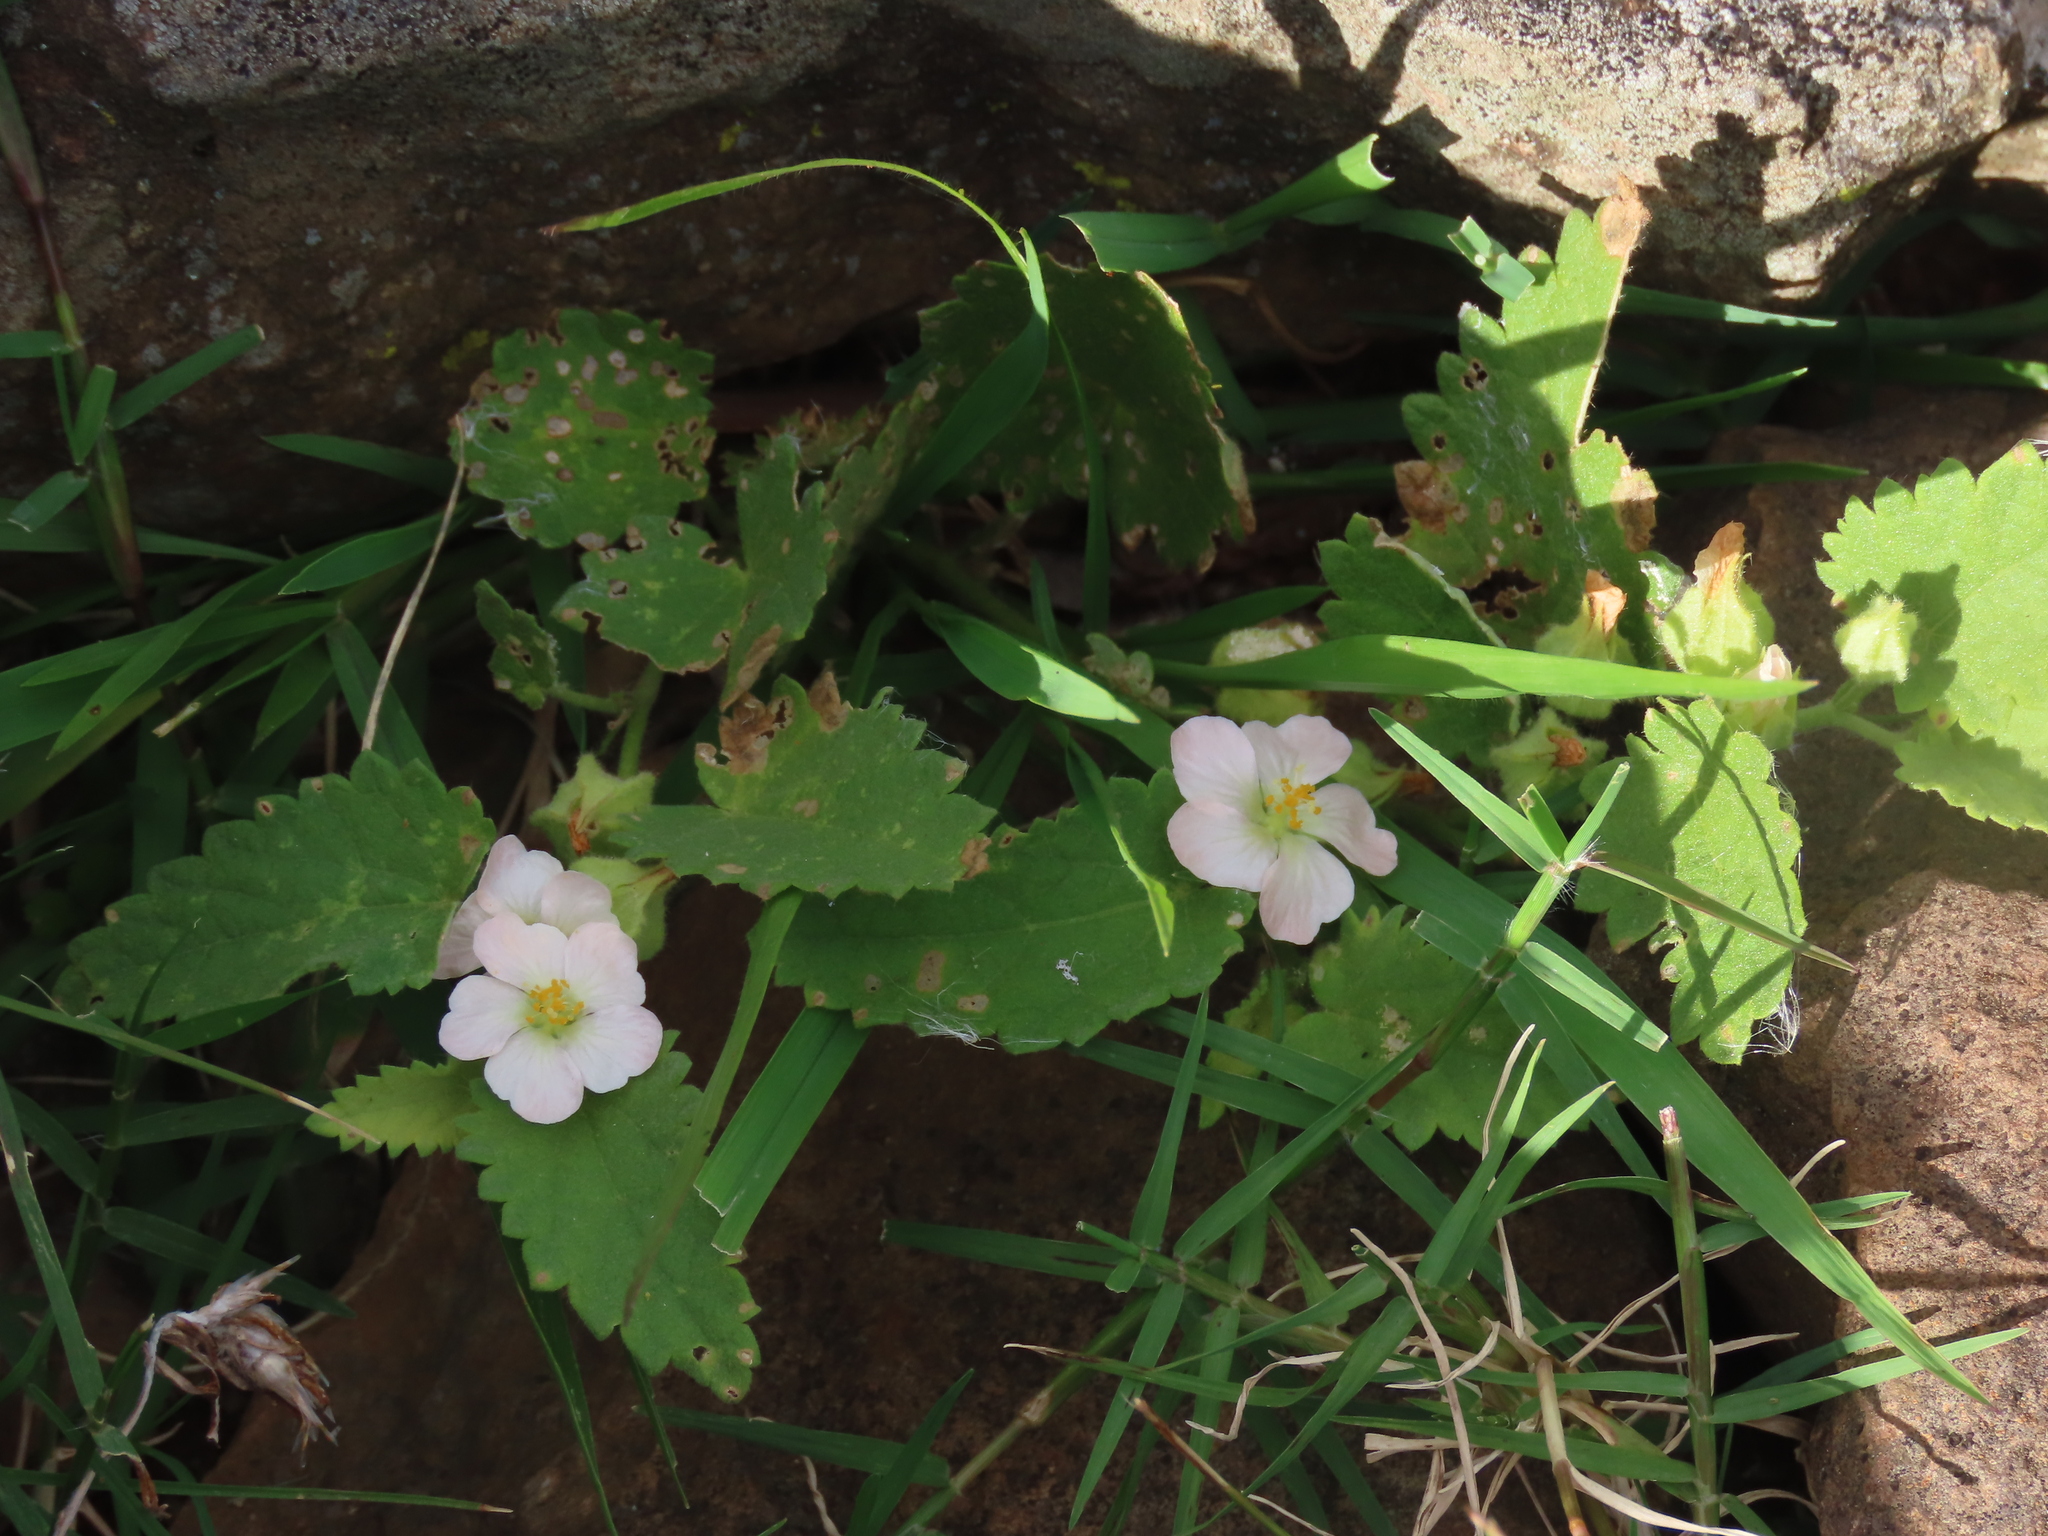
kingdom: Plantae
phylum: Tracheophyta
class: Magnoliopsida
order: Malvales
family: Malvaceae
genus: Krapovickasia
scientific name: Krapovickasia flavescens
